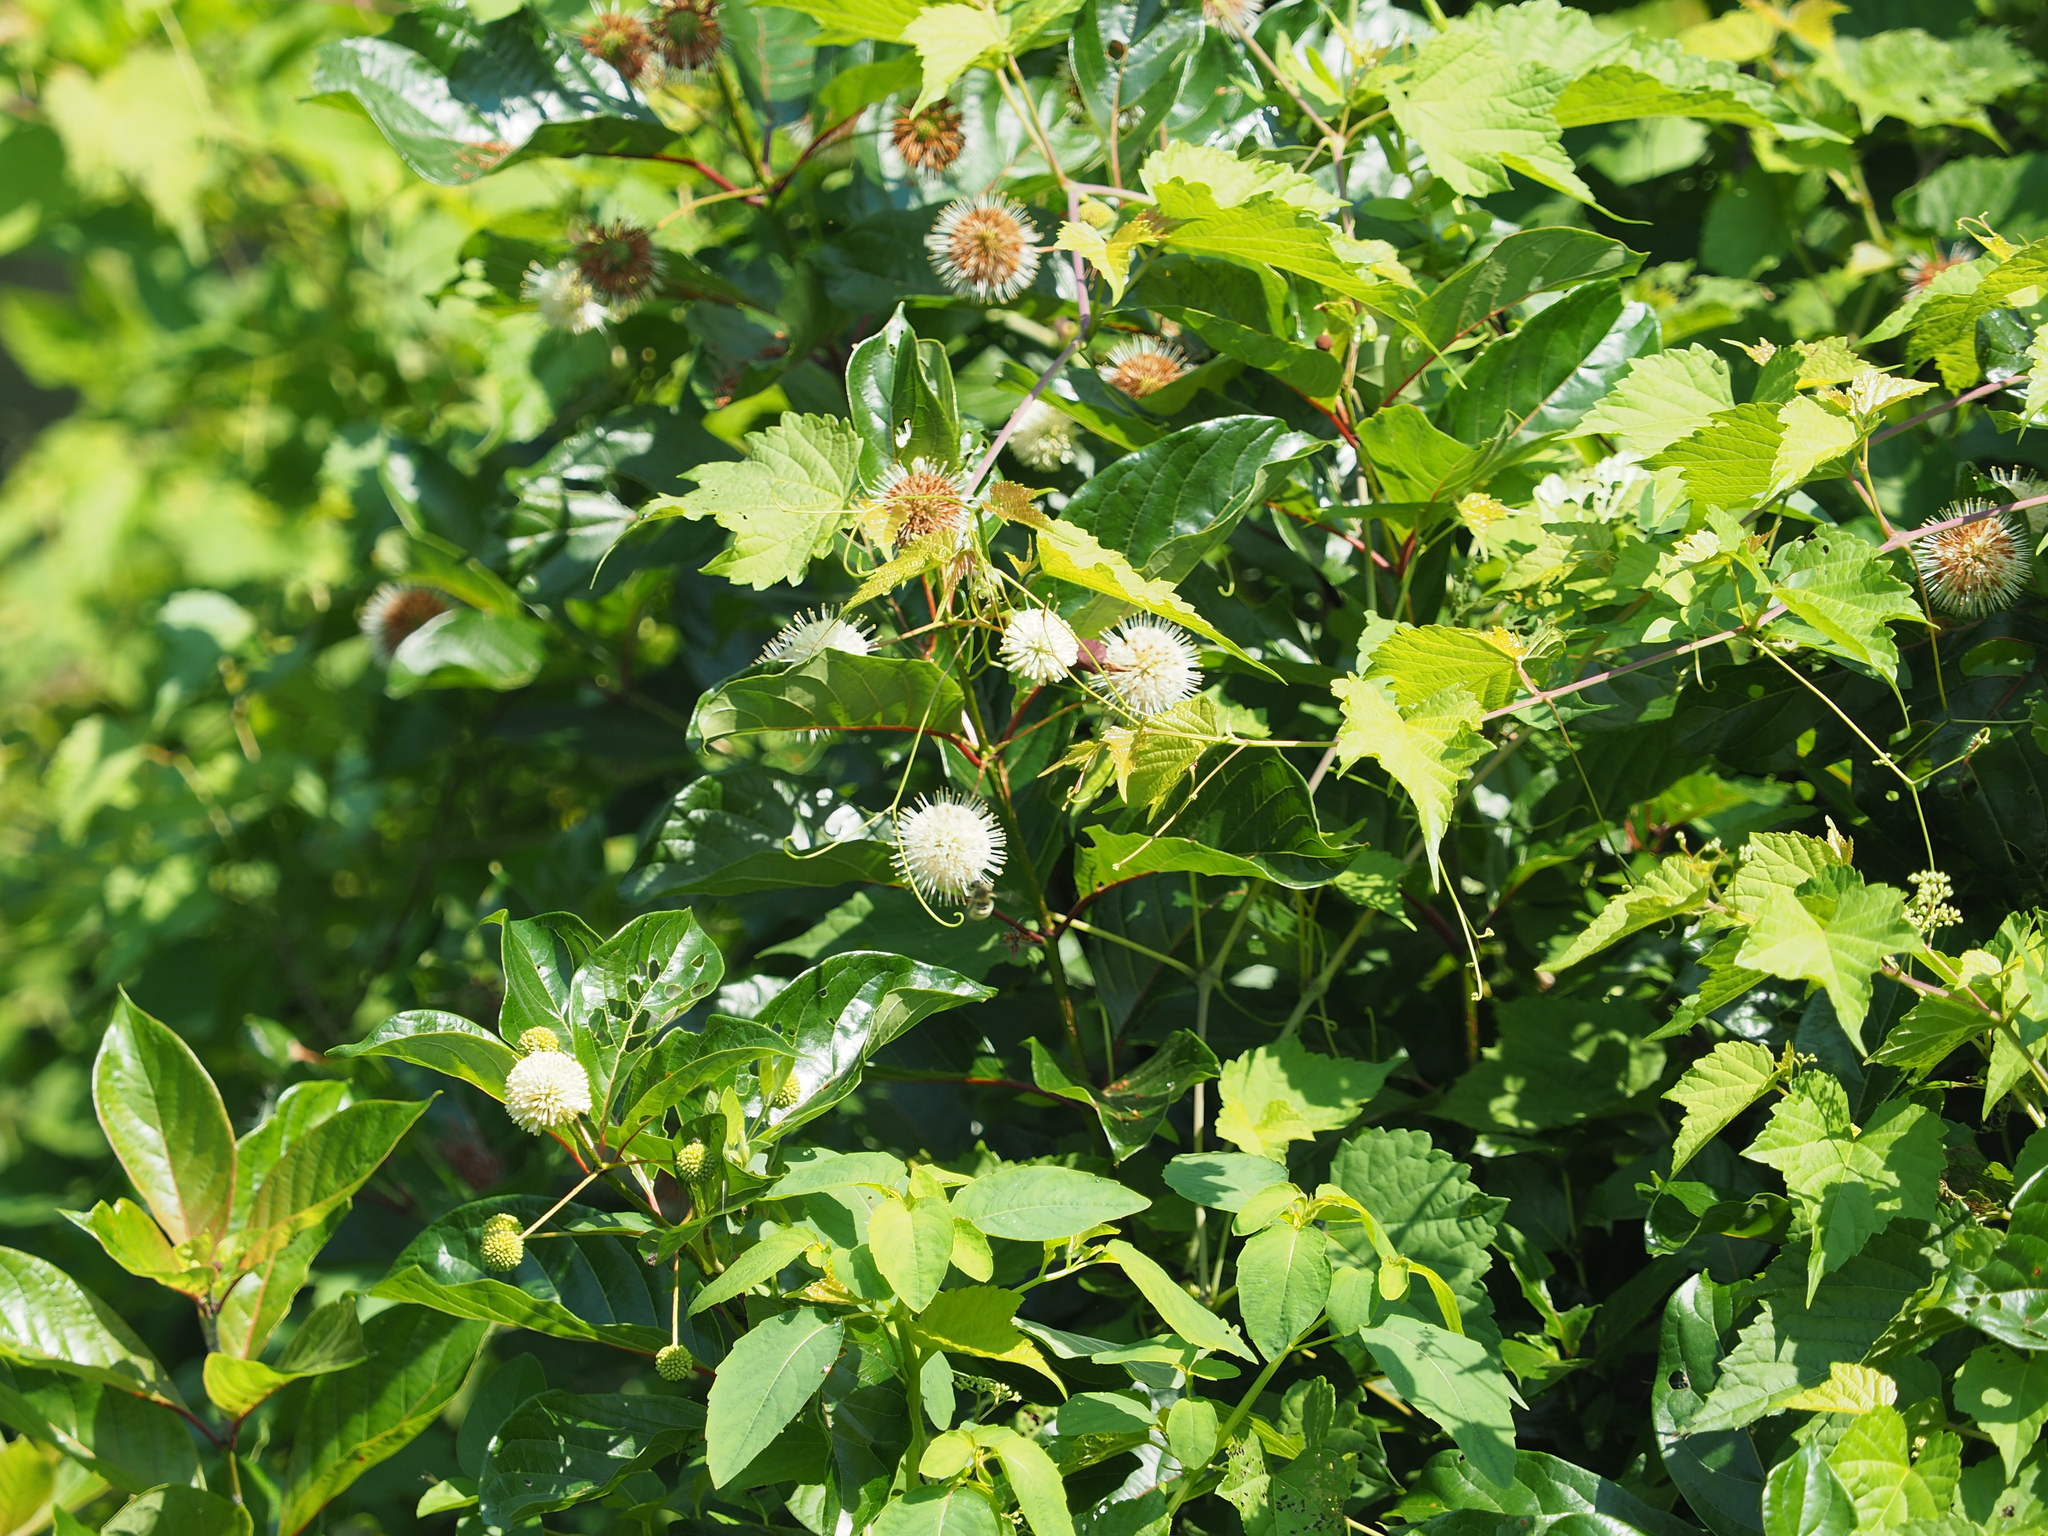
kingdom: Plantae
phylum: Tracheophyta
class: Magnoliopsida
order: Gentianales
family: Rubiaceae
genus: Cephalanthus
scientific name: Cephalanthus occidentalis
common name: Button-willow
